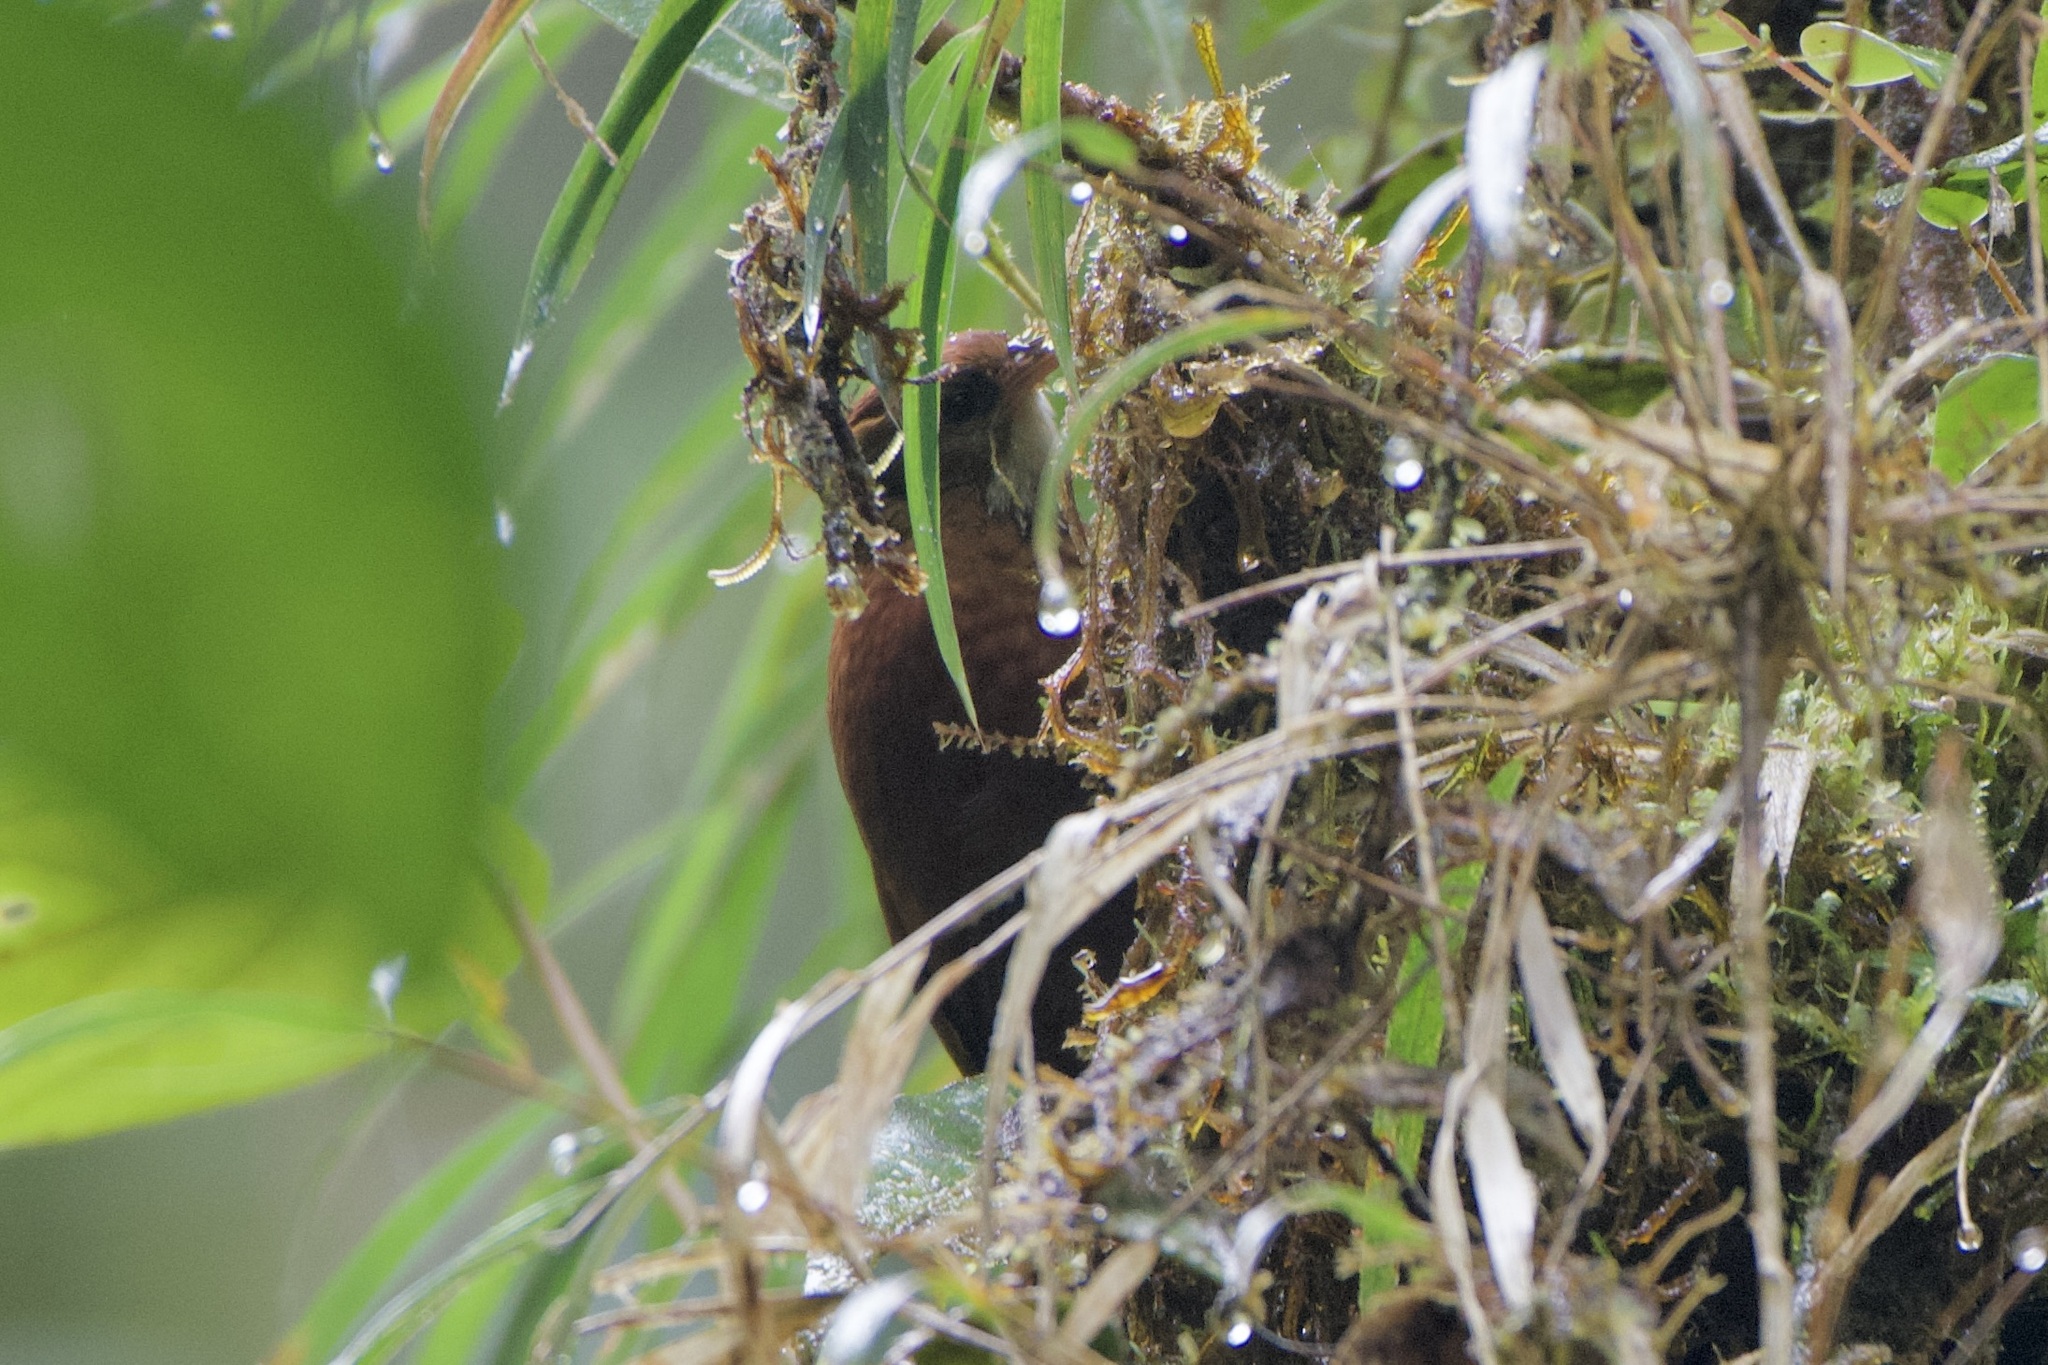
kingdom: Animalia
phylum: Chordata
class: Aves
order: Passeriformes
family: Furnariidae
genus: Margarornis
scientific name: Margarornis stellatus
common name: Star-chested treerunner
